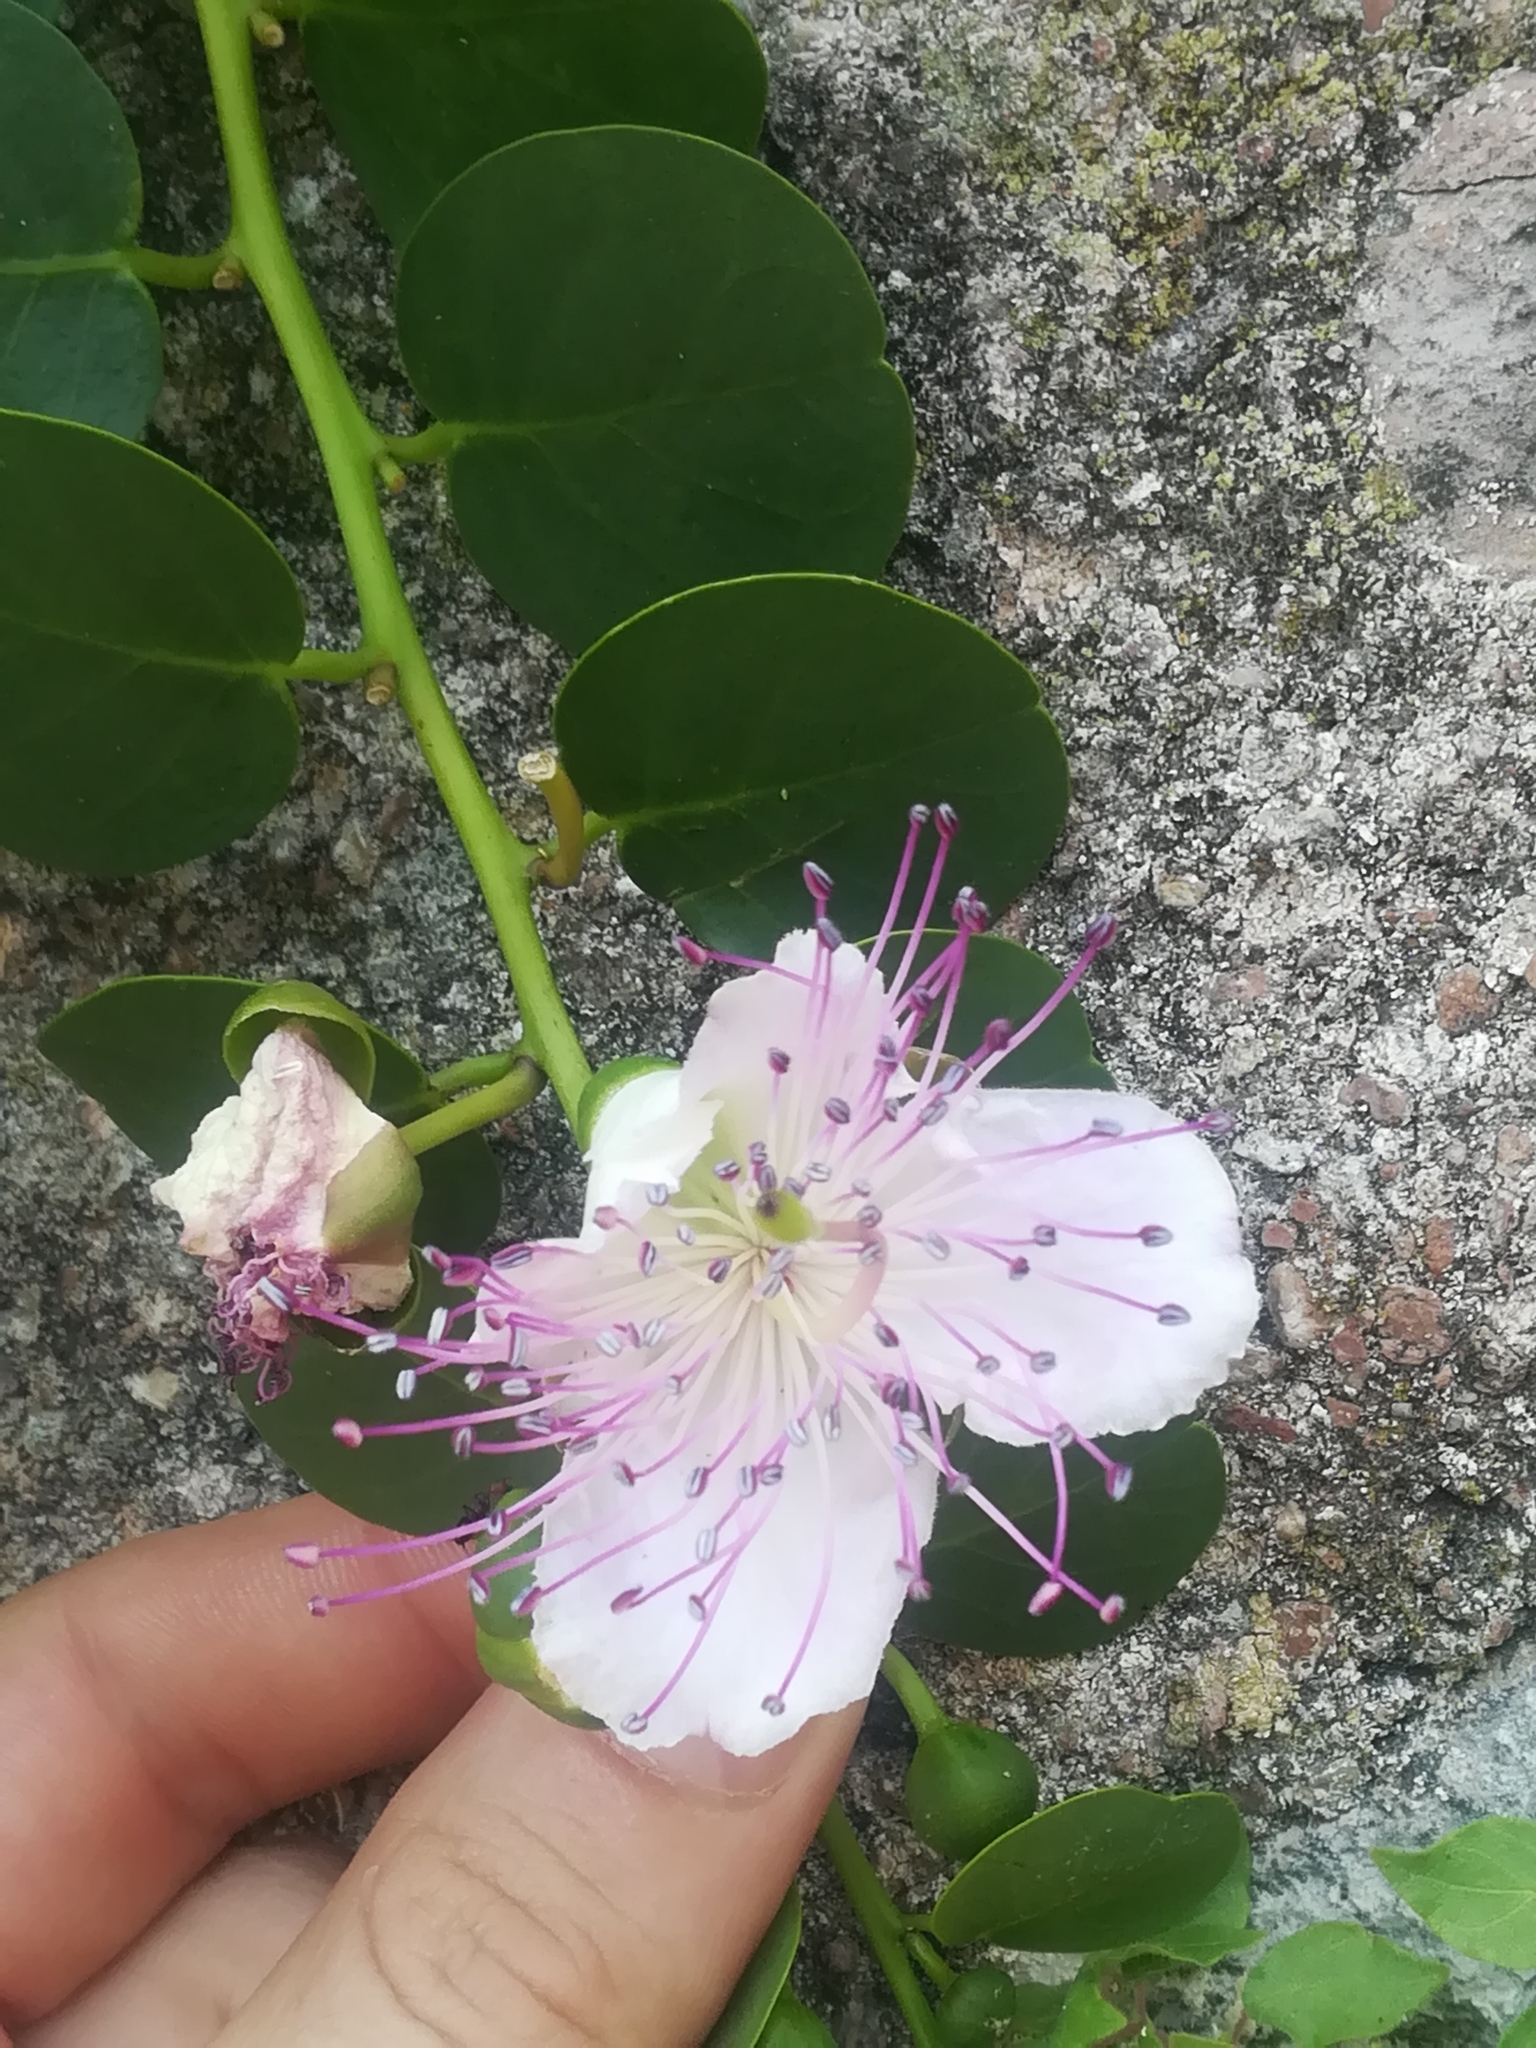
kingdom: Plantae
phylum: Tracheophyta
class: Magnoliopsida
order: Brassicales
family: Capparaceae
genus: Capparis
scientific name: Capparis spinosa
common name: Caper
